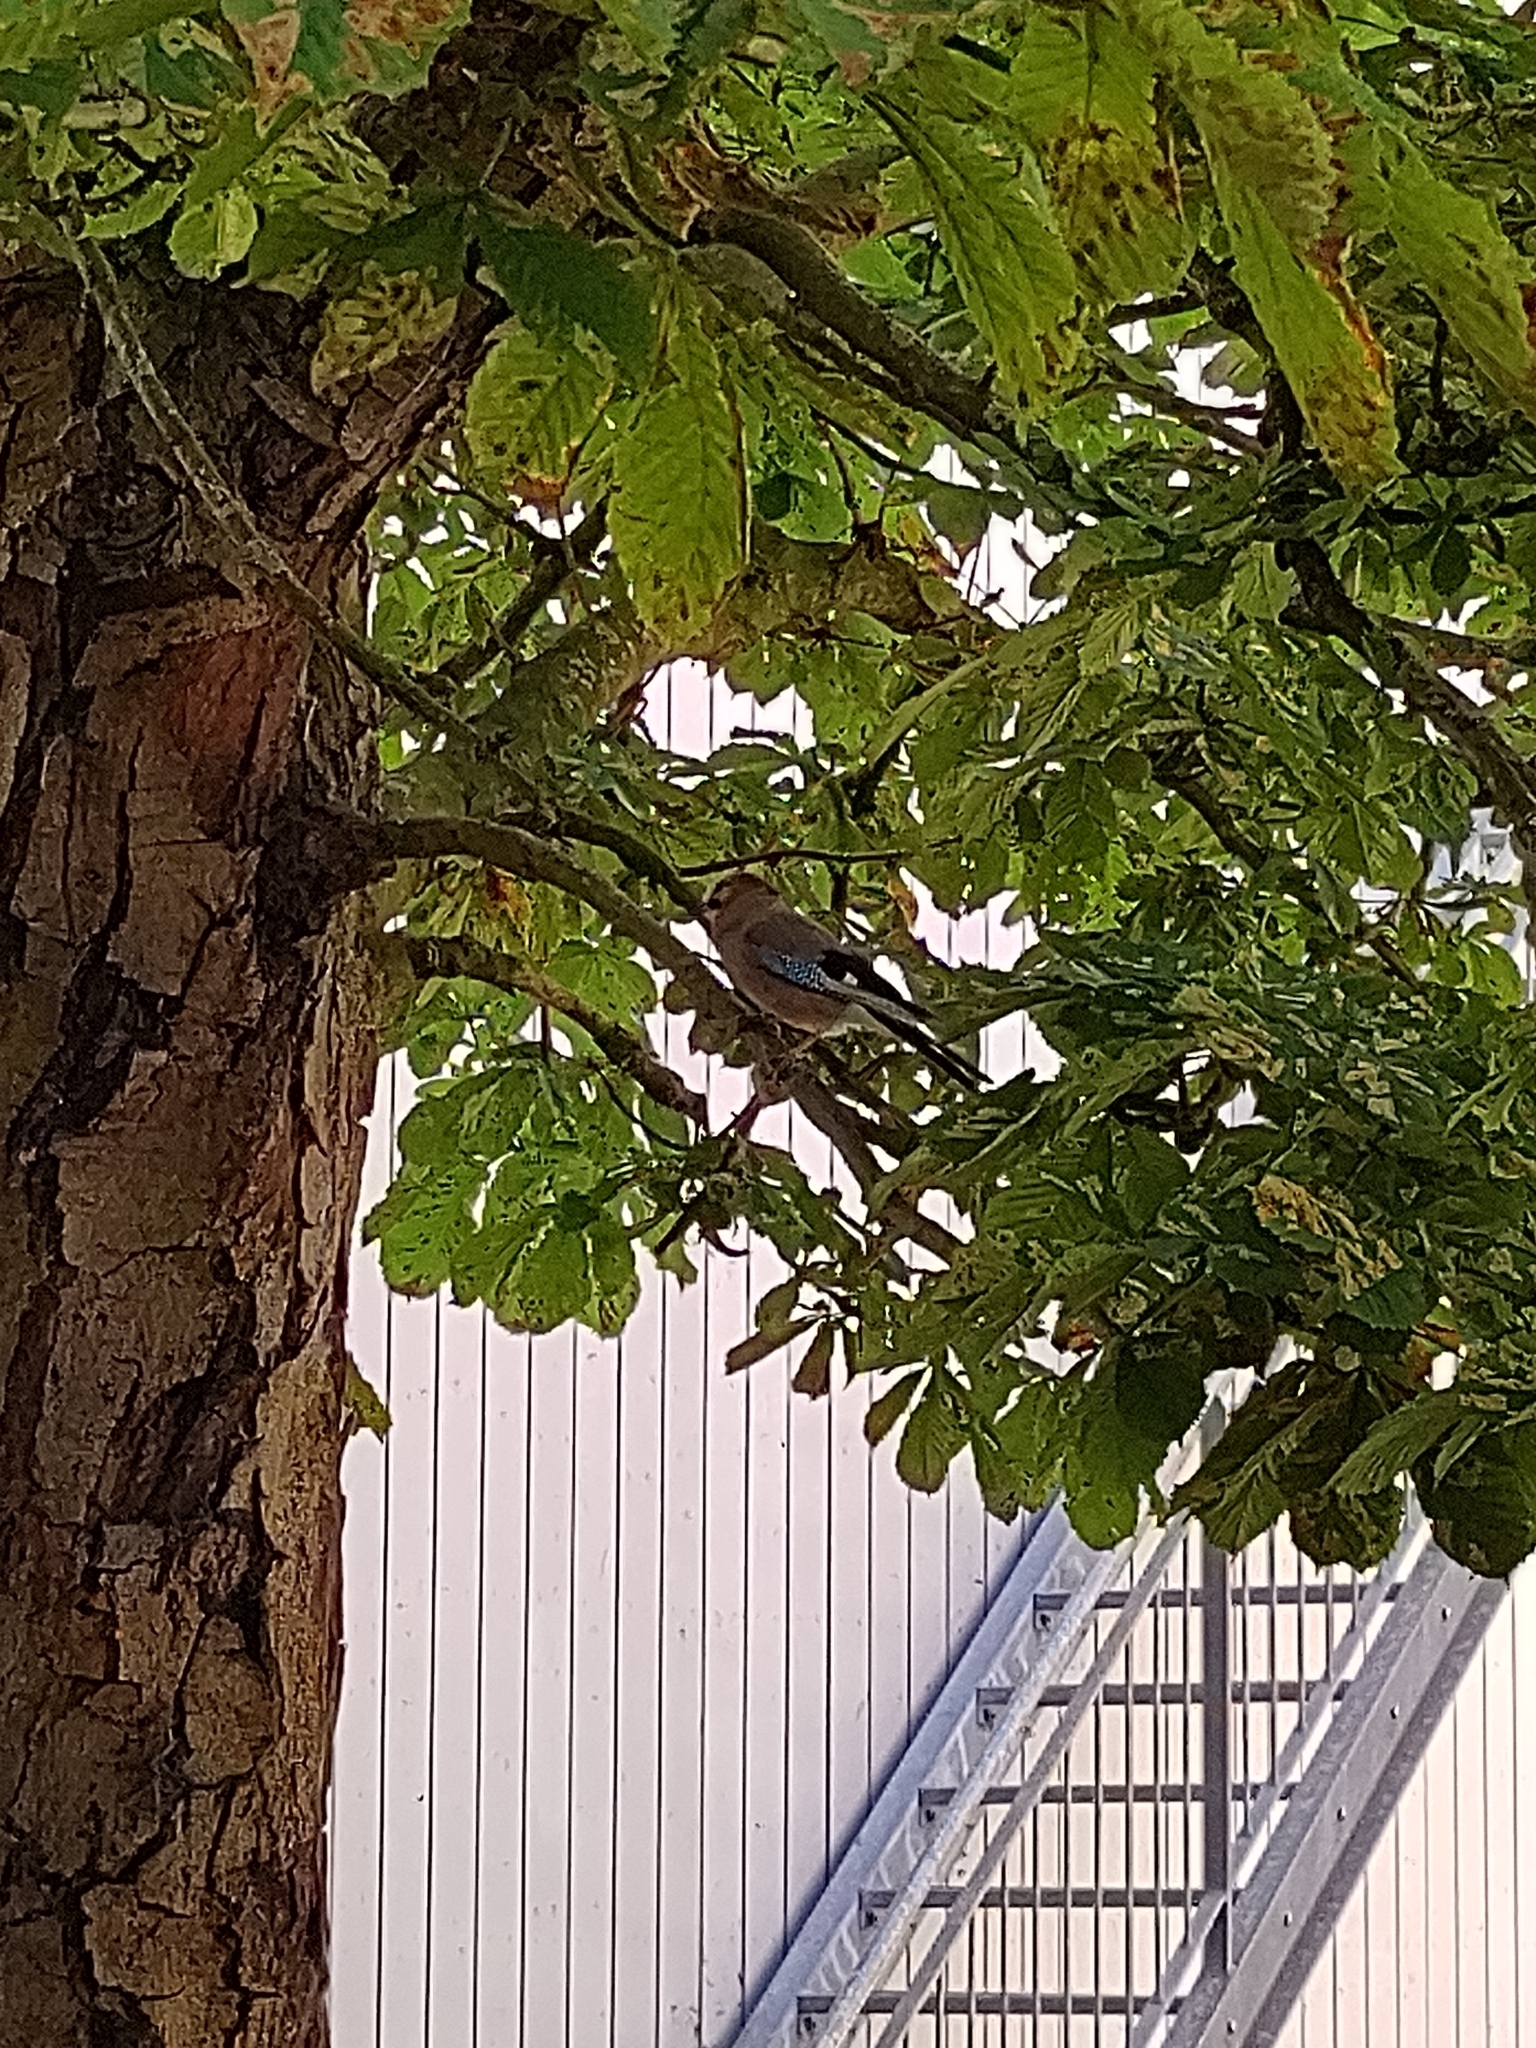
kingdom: Animalia
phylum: Chordata
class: Aves
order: Passeriformes
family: Corvidae
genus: Garrulus
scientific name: Garrulus glandarius
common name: Eurasian jay
